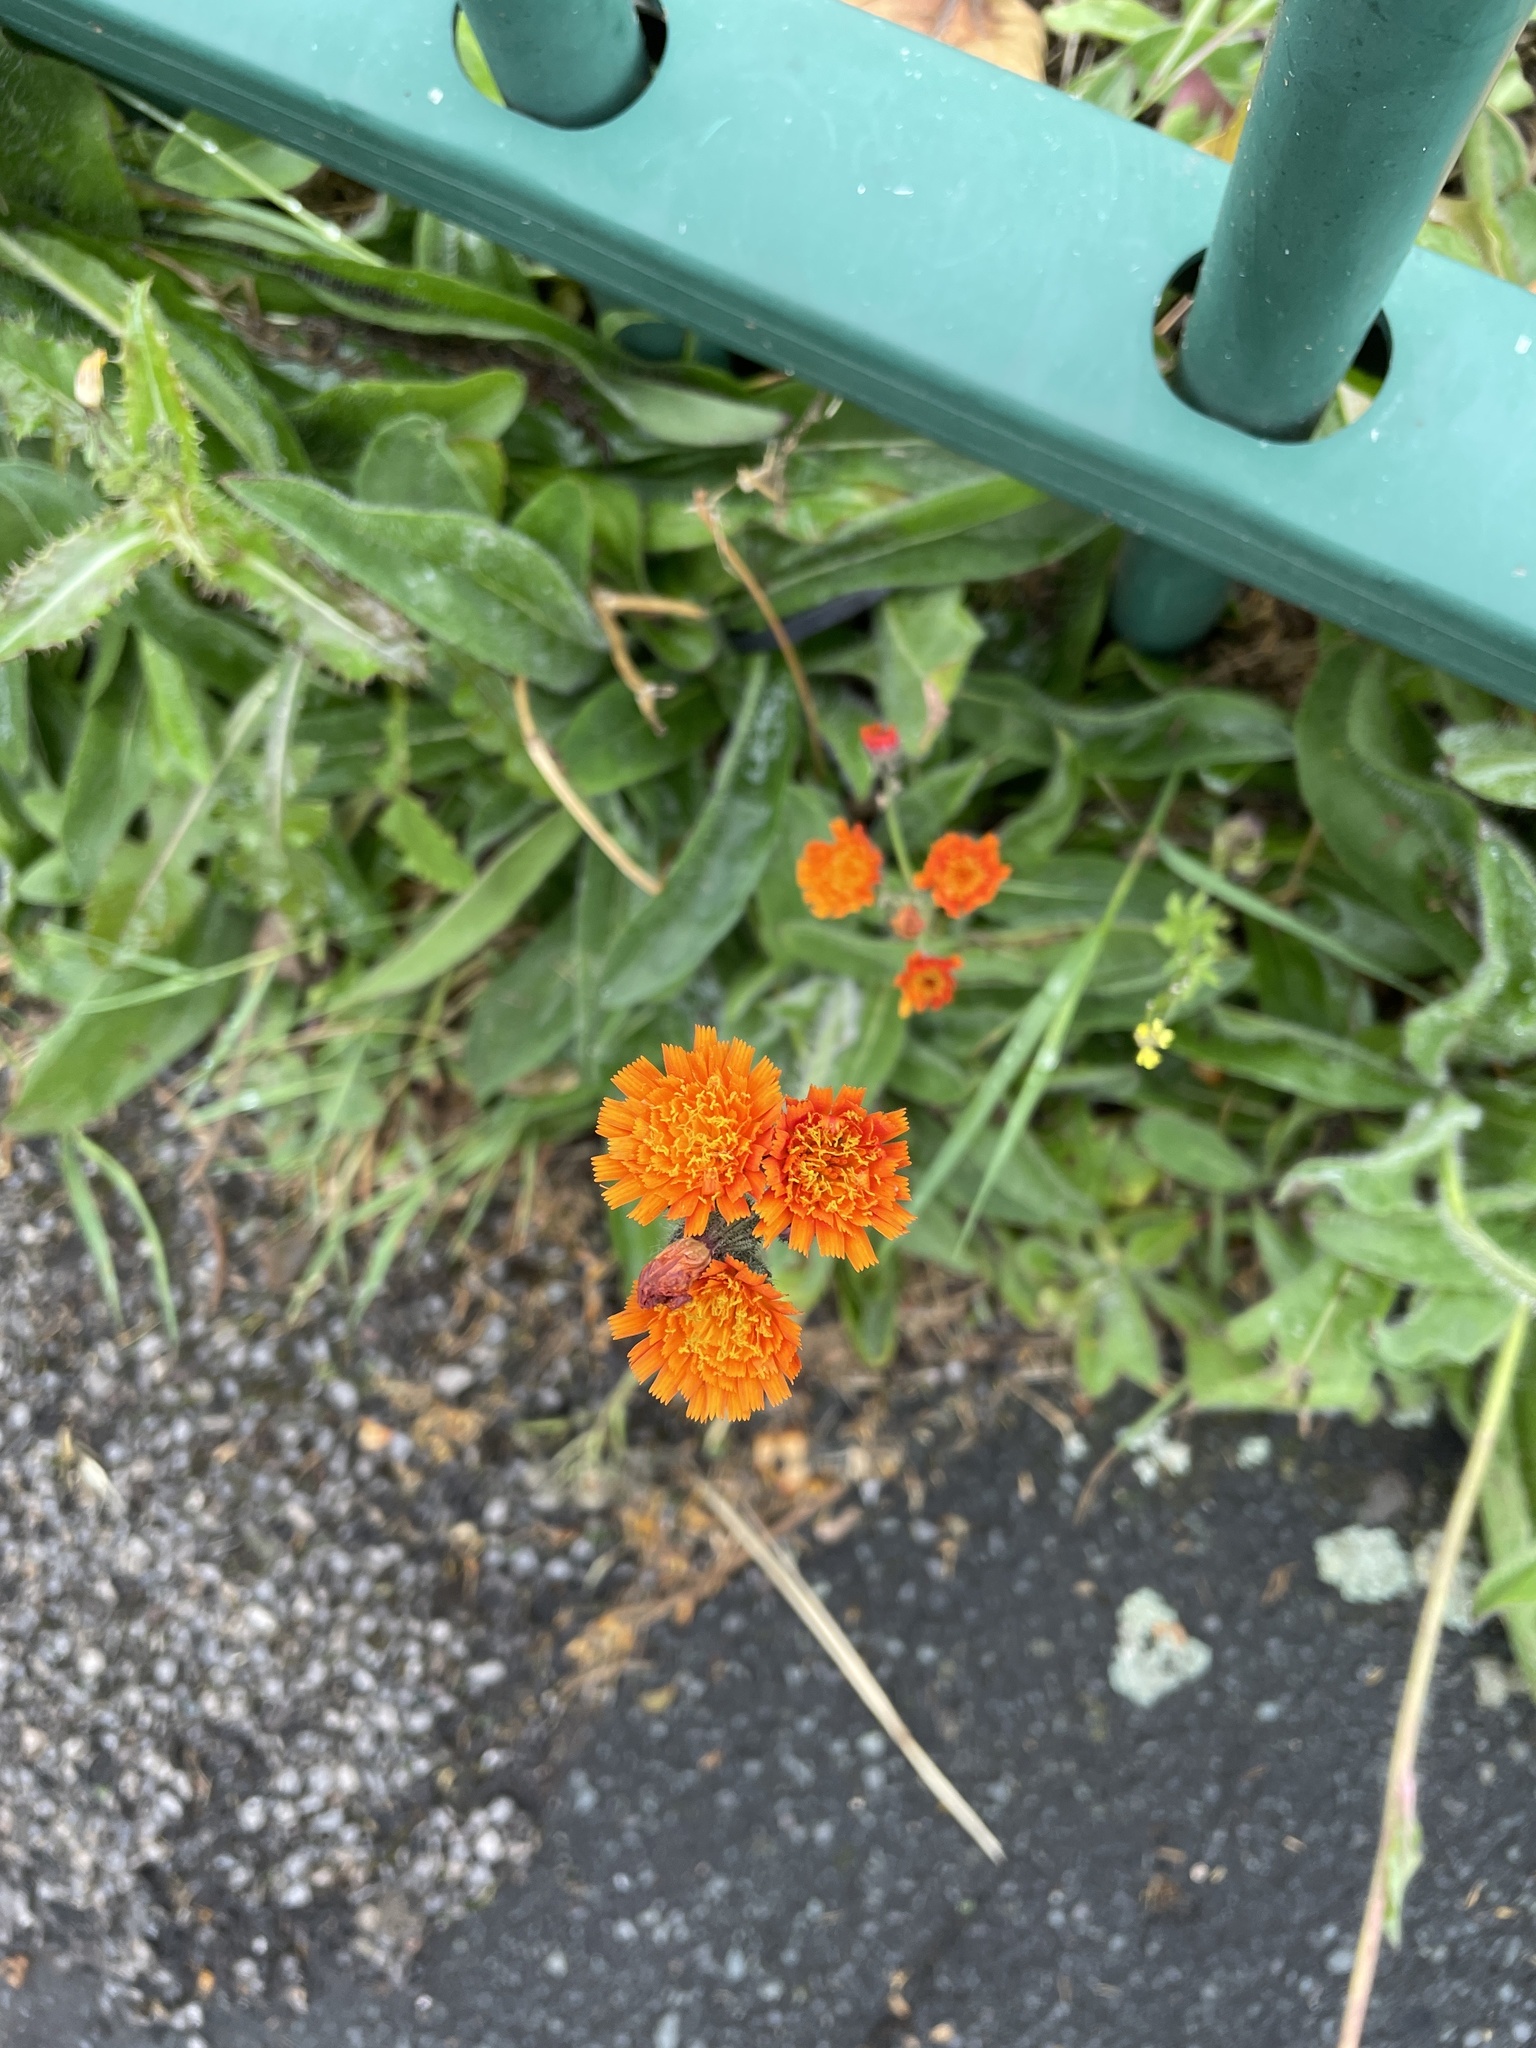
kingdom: Plantae
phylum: Tracheophyta
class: Magnoliopsida
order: Asterales
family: Asteraceae
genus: Pilosella
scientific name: Pilosella aurantiaca
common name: Fox-and-cubs
